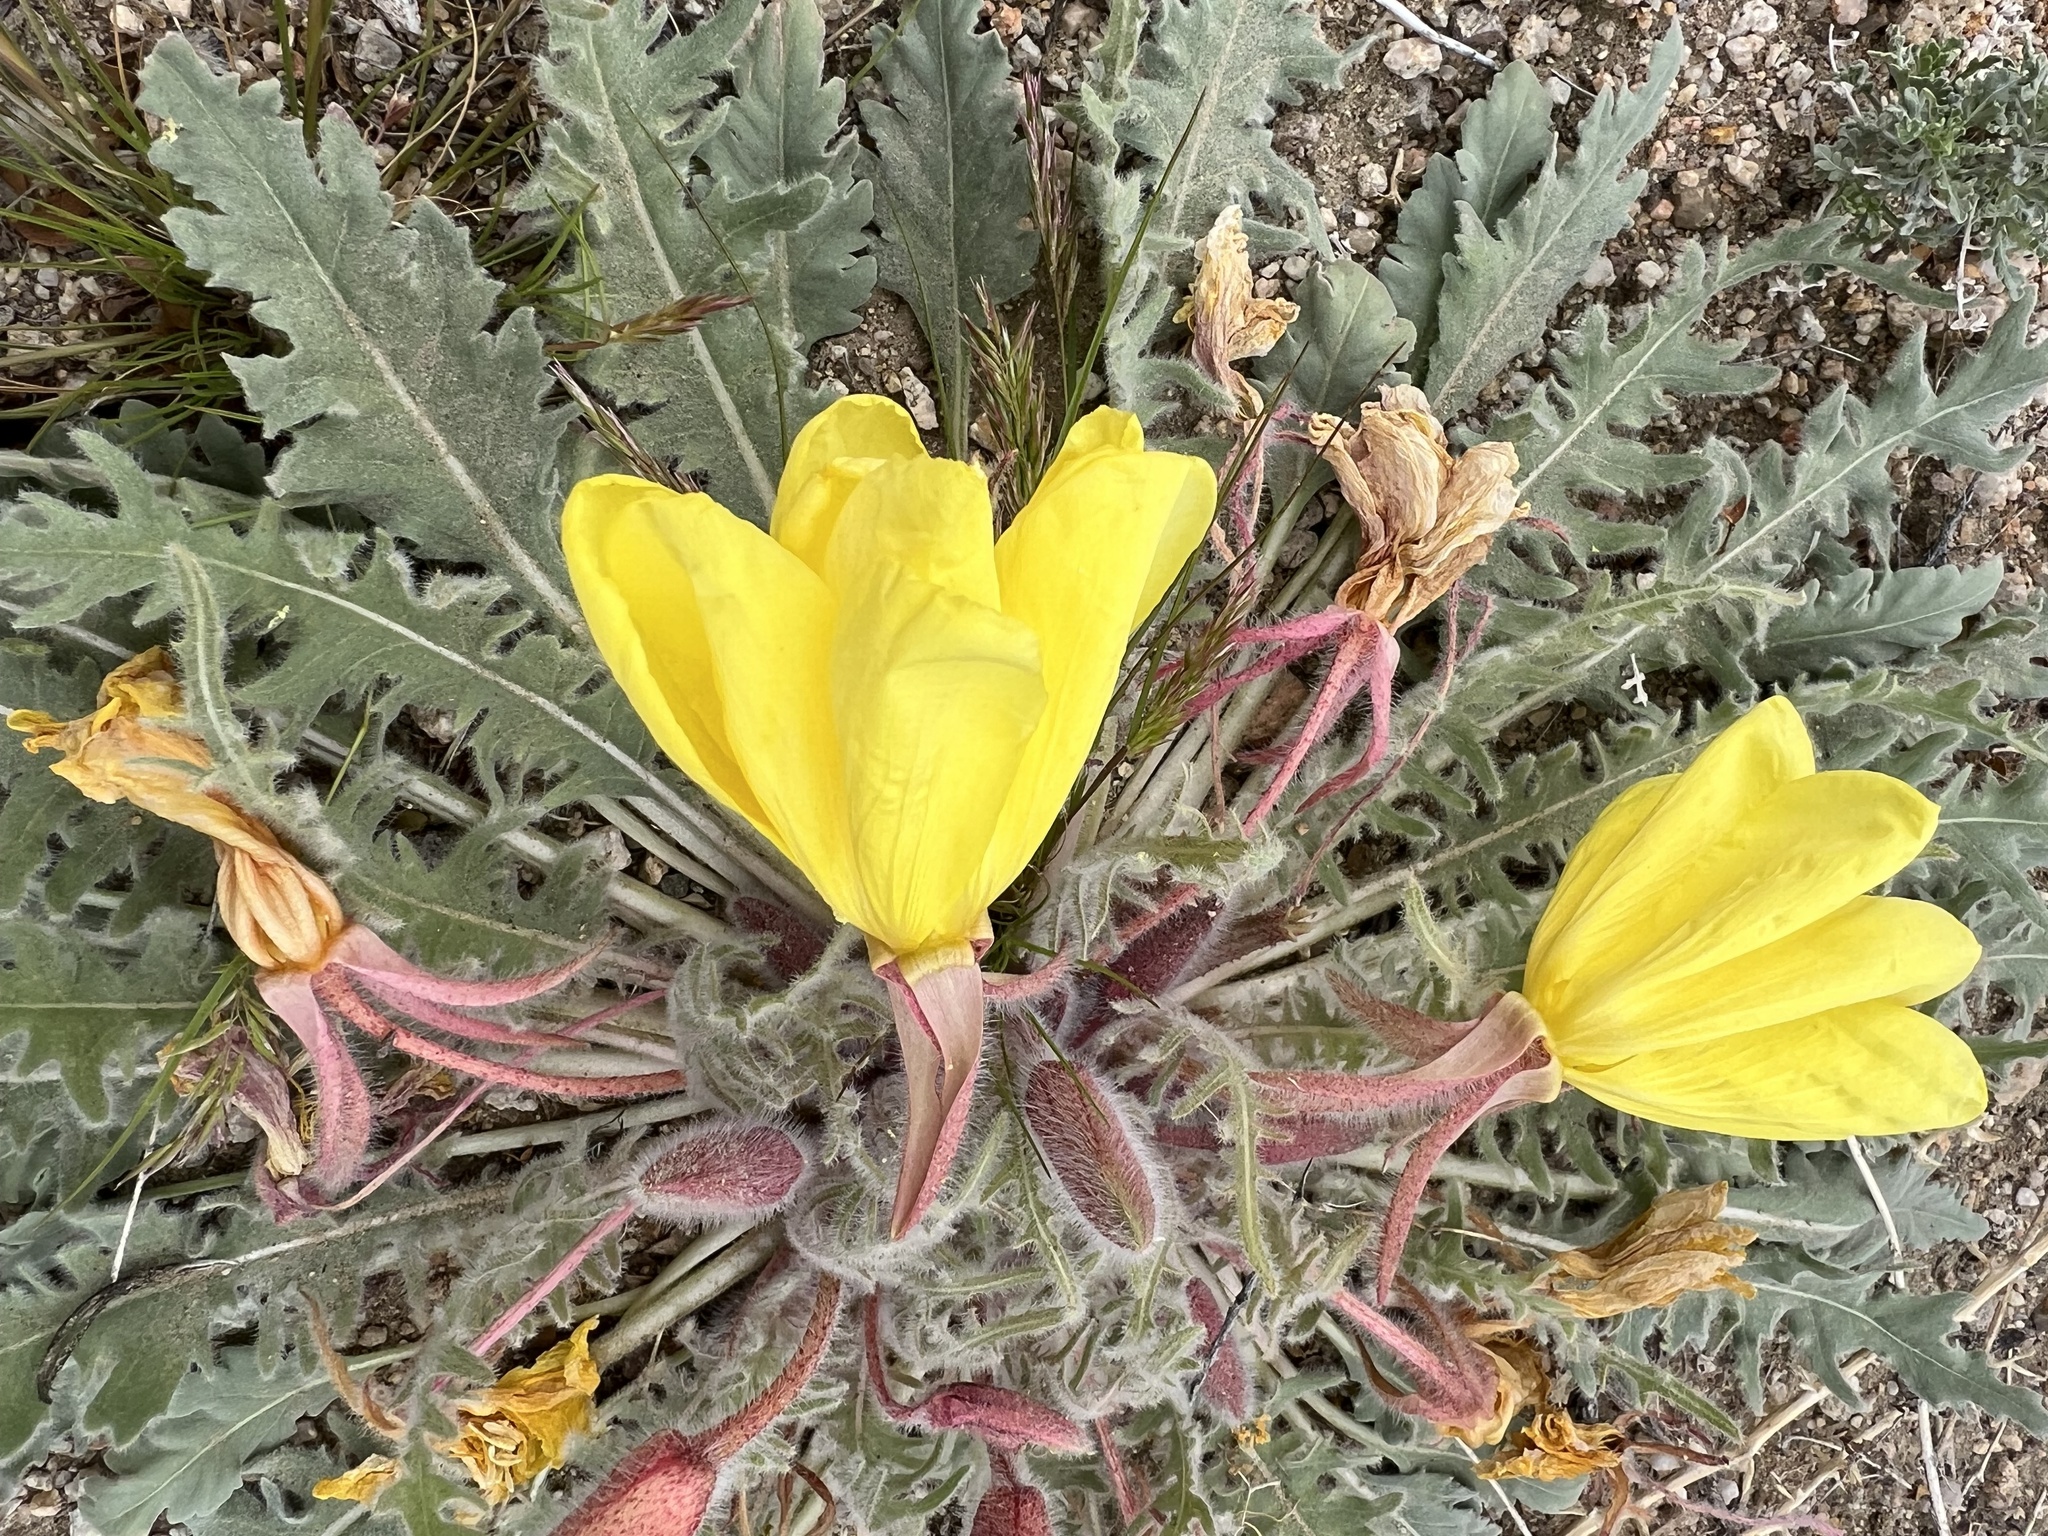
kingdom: Plantae
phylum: Tracheophyta
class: Magnoliopsida
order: Myrtales
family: Onagraceae
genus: Oenothera
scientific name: Oenothera primiveris
